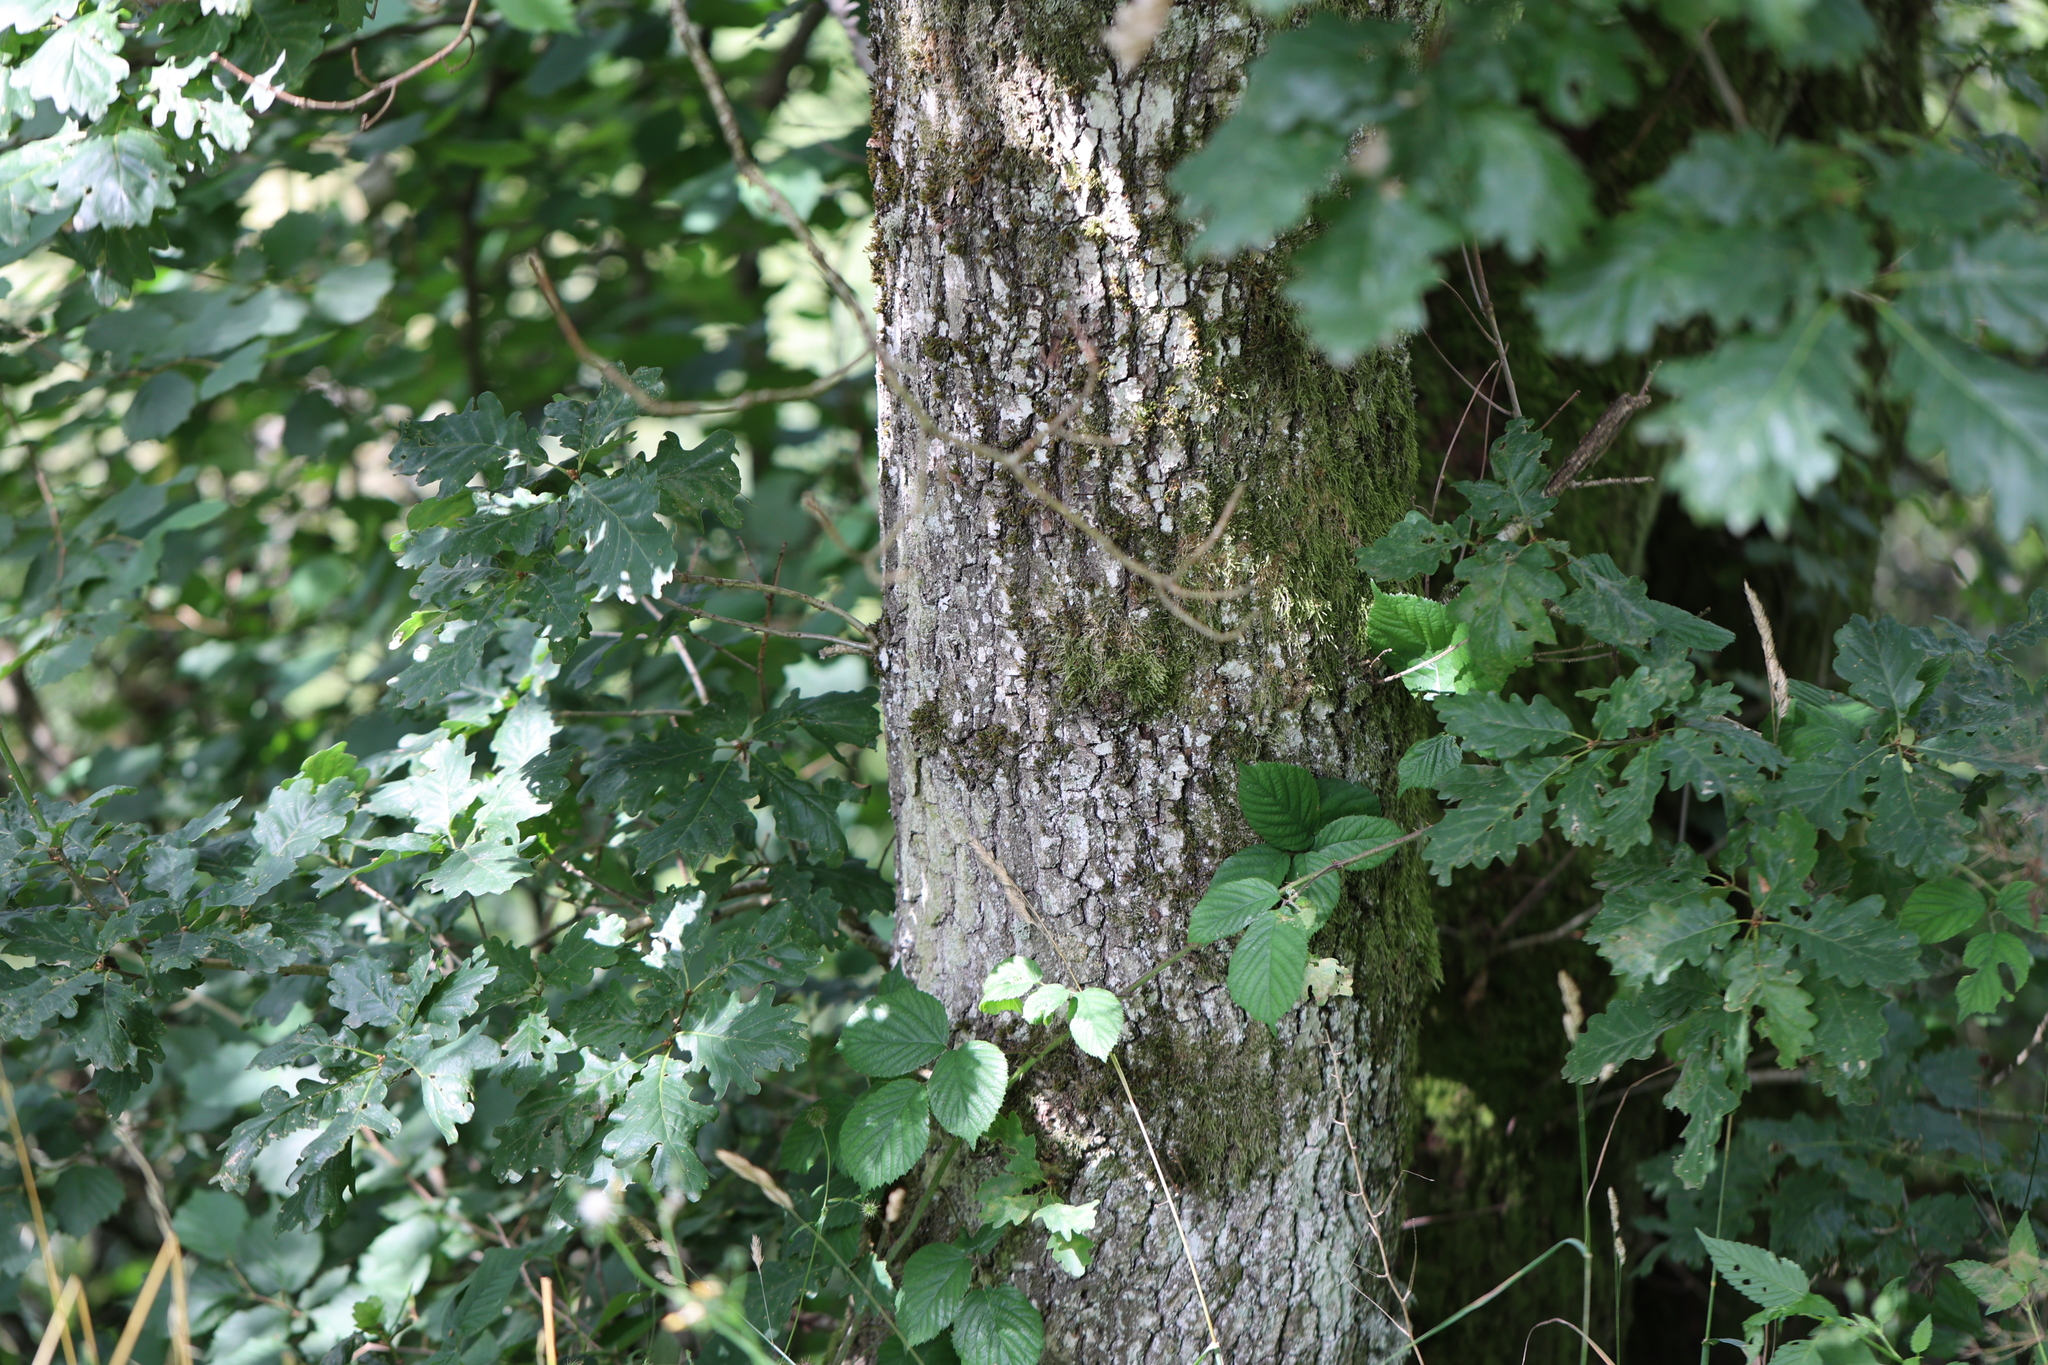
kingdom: Plantae
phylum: Tracheophyta
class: Magnoliopsida
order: Fagales
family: Fagaceae
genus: Quercus
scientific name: Quercus petraea
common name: Sessile oak
